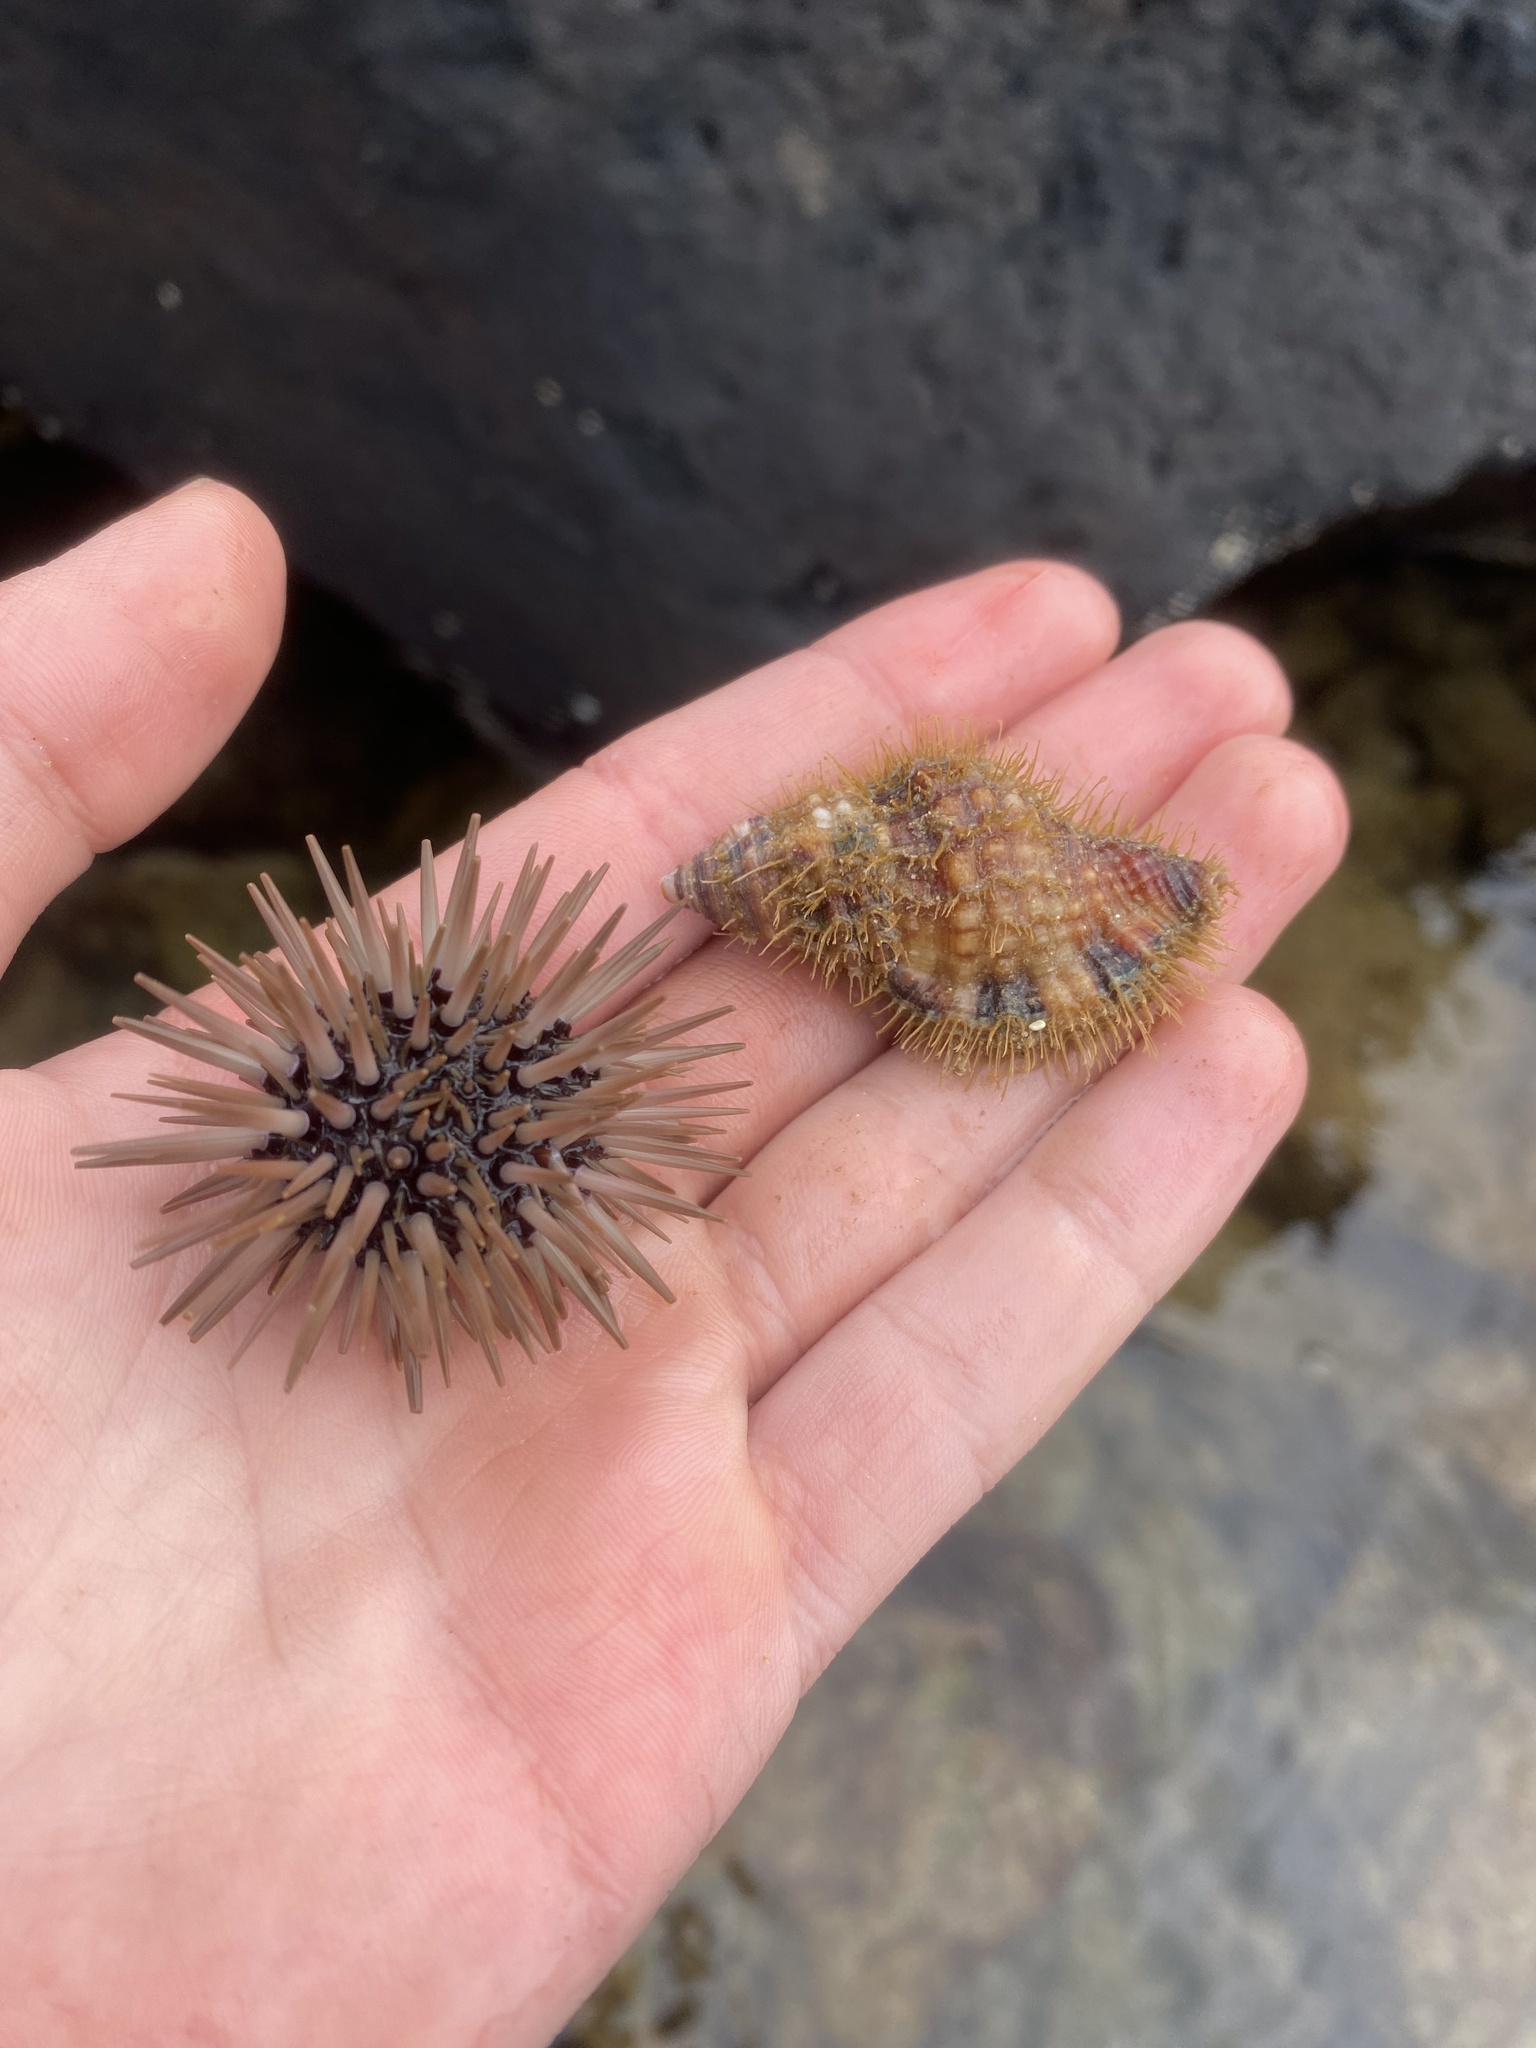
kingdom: Animalia
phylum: Echinodermata
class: Echinoidea
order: Camarodonta
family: Echinometridae
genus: Echinometra
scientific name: Echinometra mathaei
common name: Rock-boring urchin
